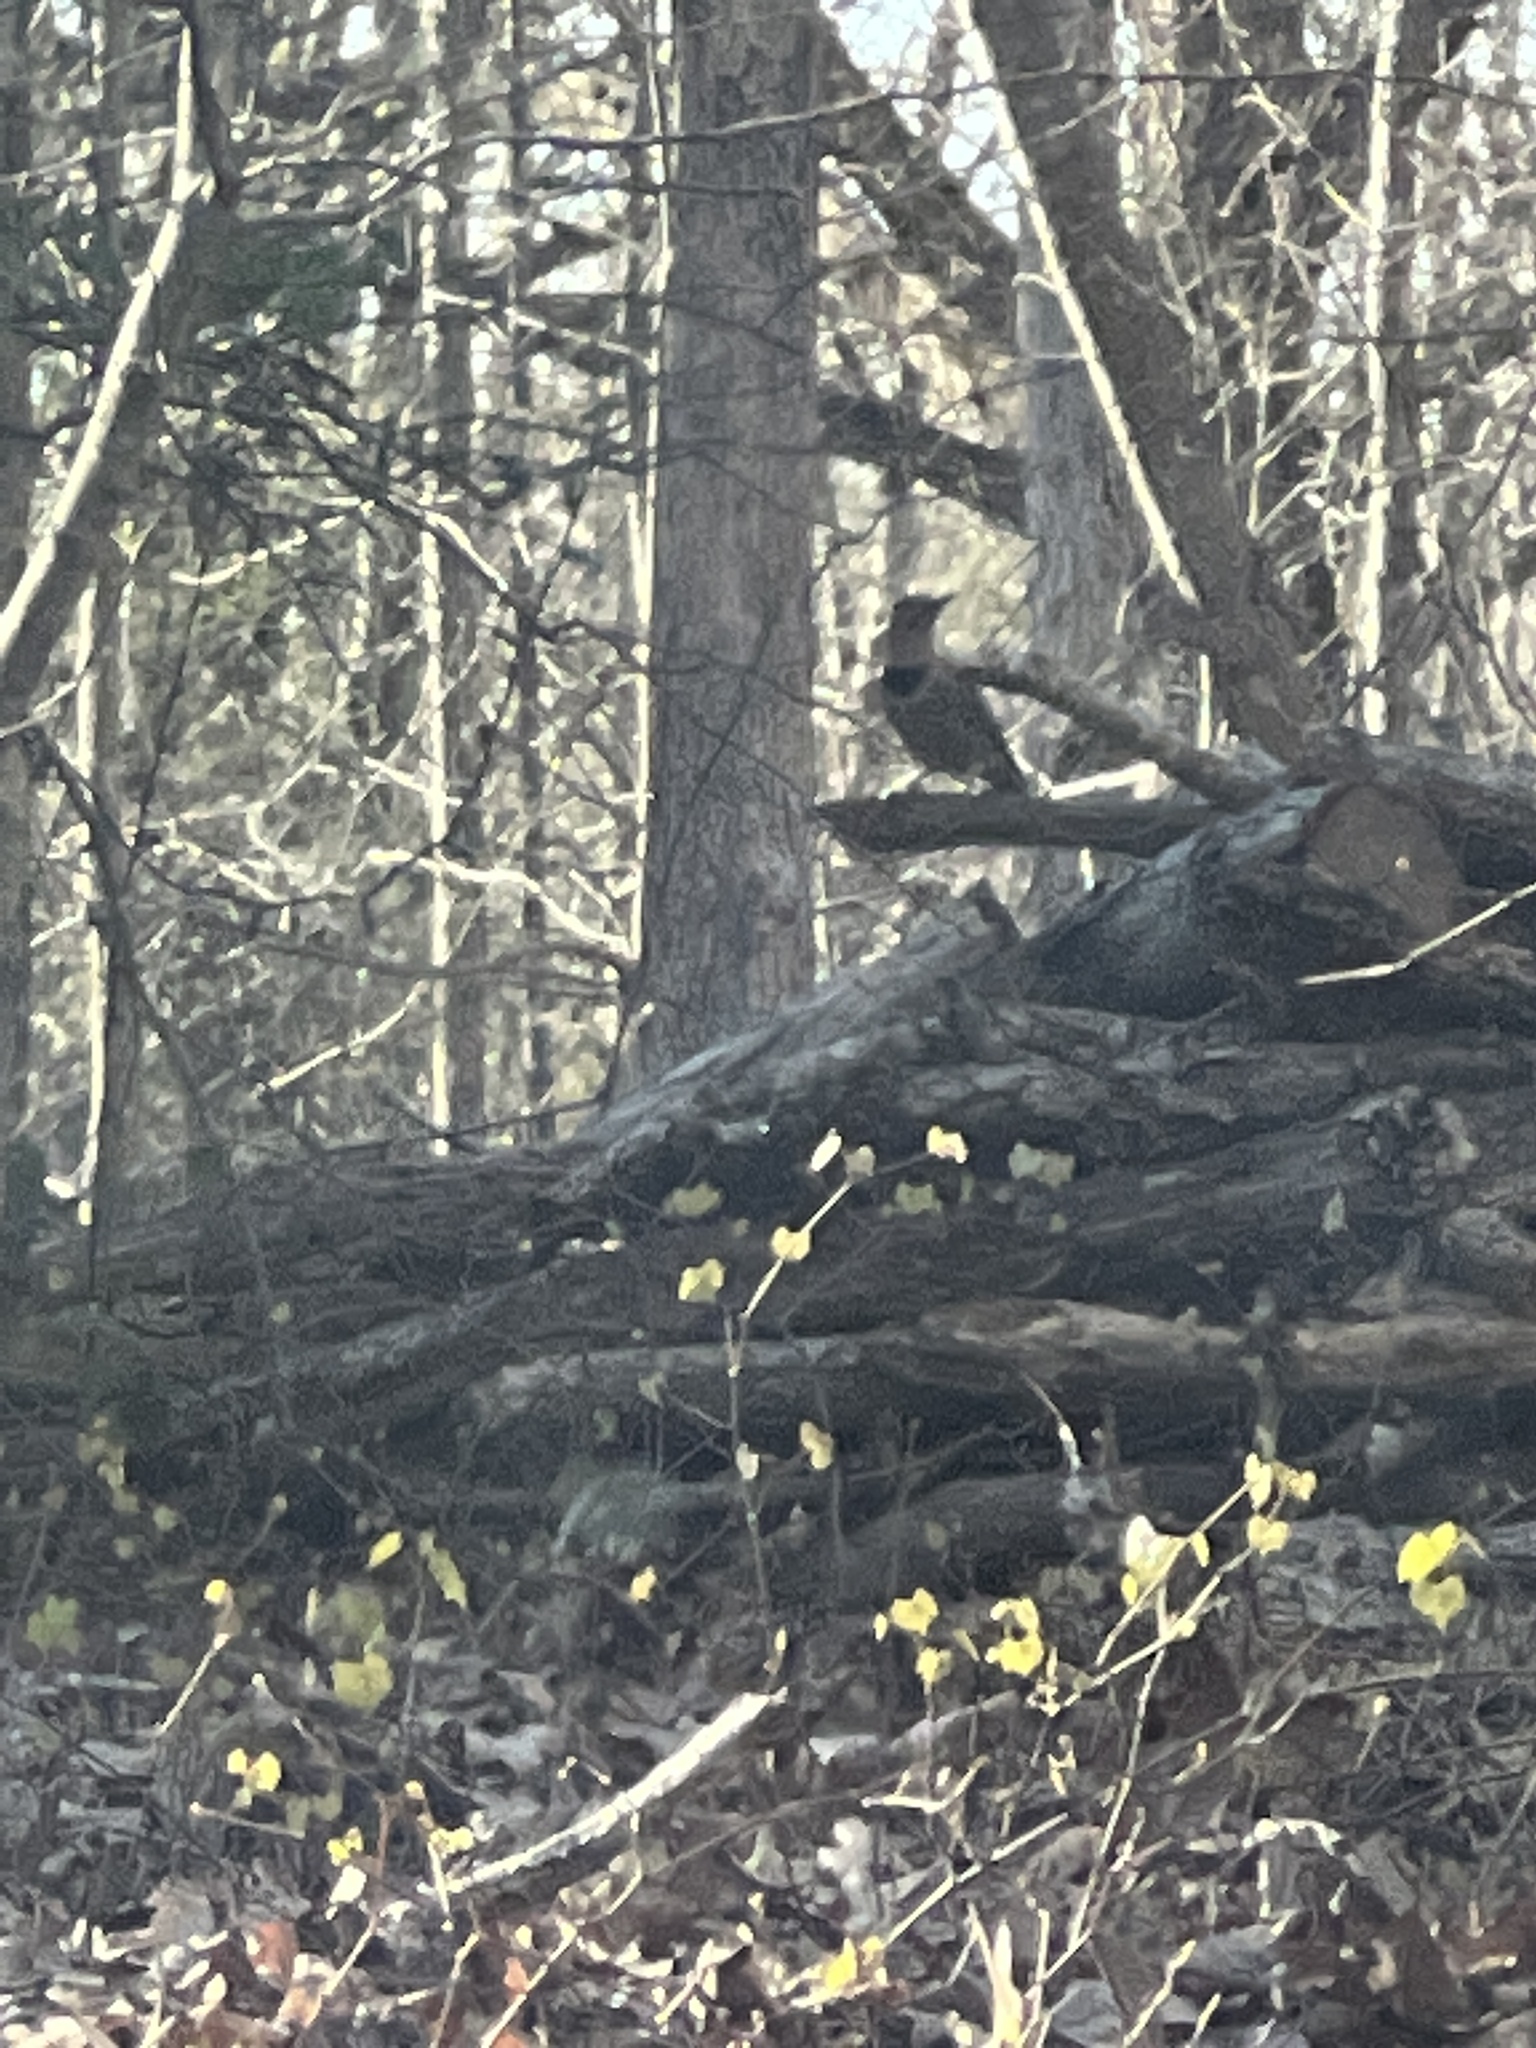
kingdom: Animalia
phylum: Chordata
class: Aves
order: Piciformes
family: Picidae
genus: Colaptes
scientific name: Colaptes auratus
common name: Northern flicker
